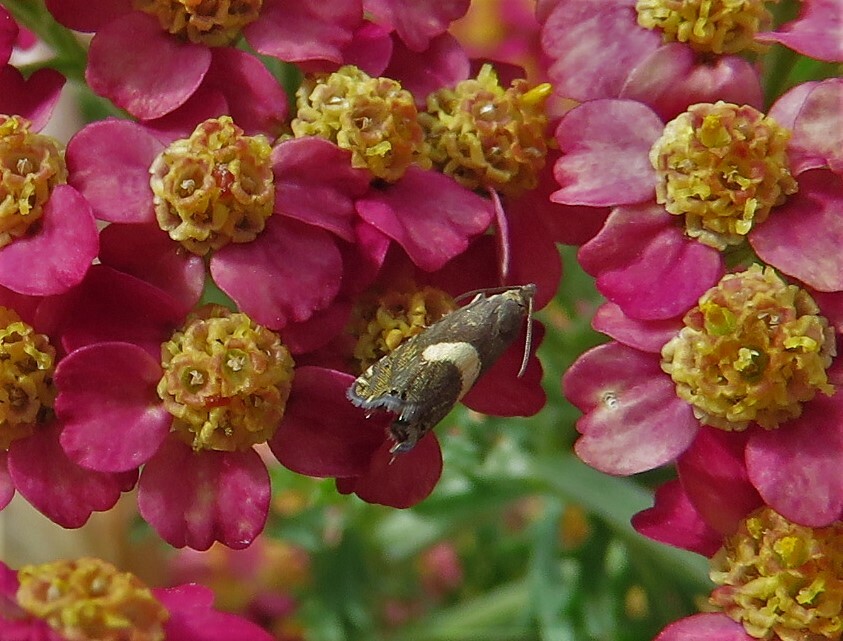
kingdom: Animalia
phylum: Arthropoda
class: Insecta
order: Lepidoptera
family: Tortricidae
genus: Dichrorampha
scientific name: Dichrorampha petiverella
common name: Common drill
